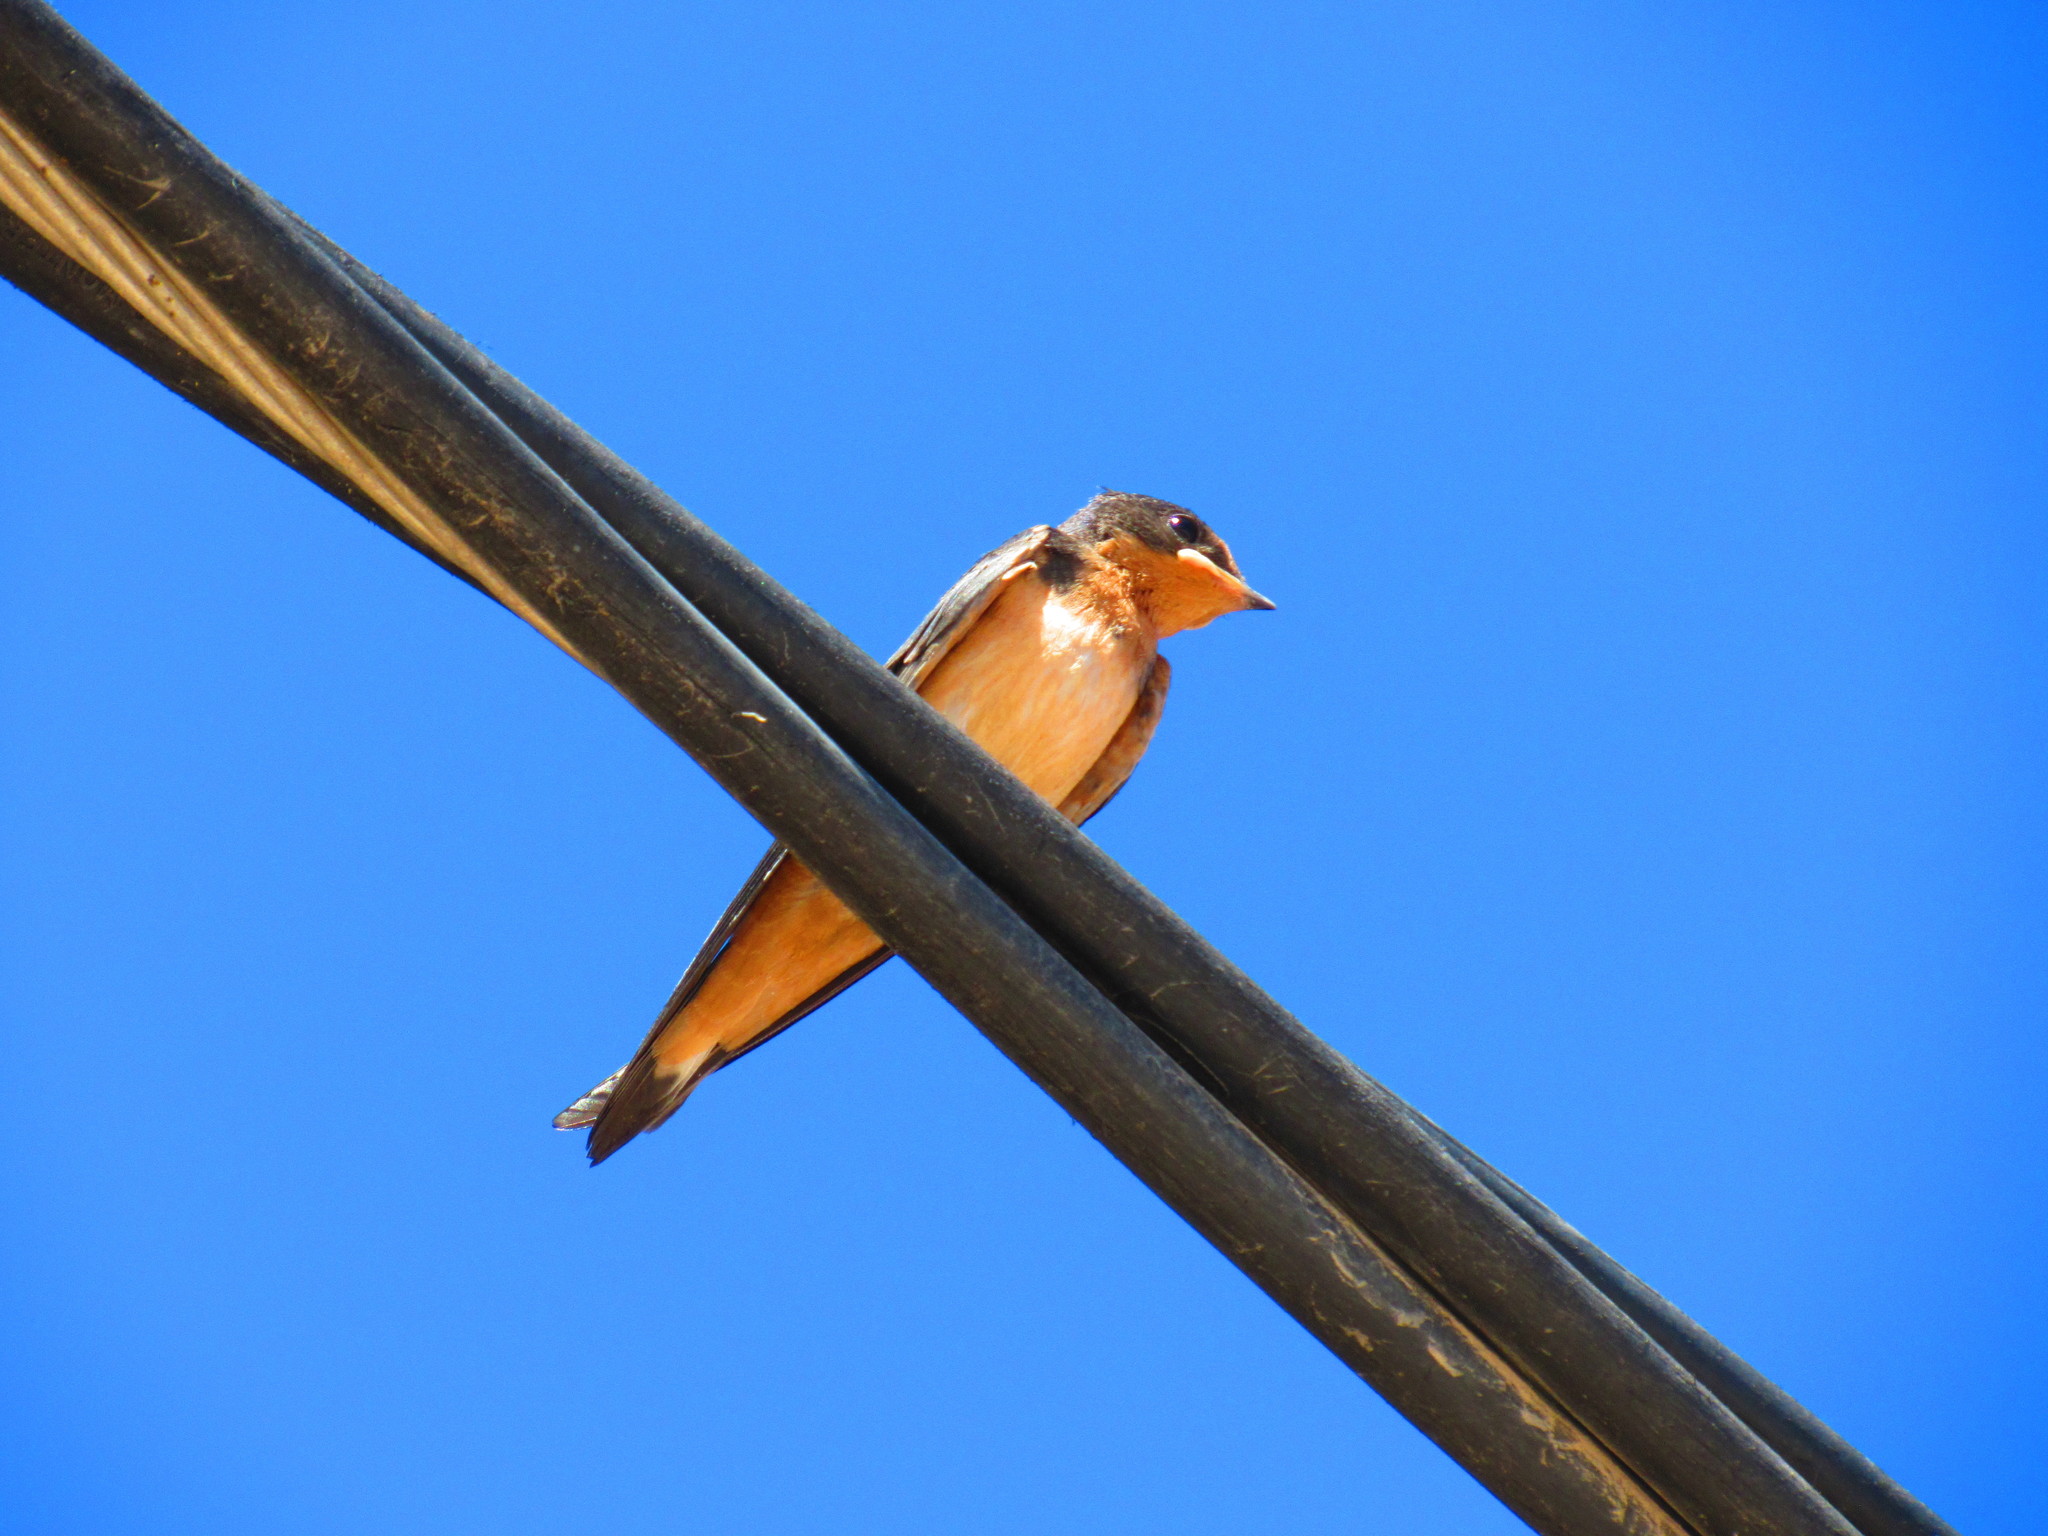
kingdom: Animalia
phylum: Chordata
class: Aves
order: Passeriformes
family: Hirundinidae
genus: Hirundo
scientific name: Hirundo rustica
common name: Barn swallow
